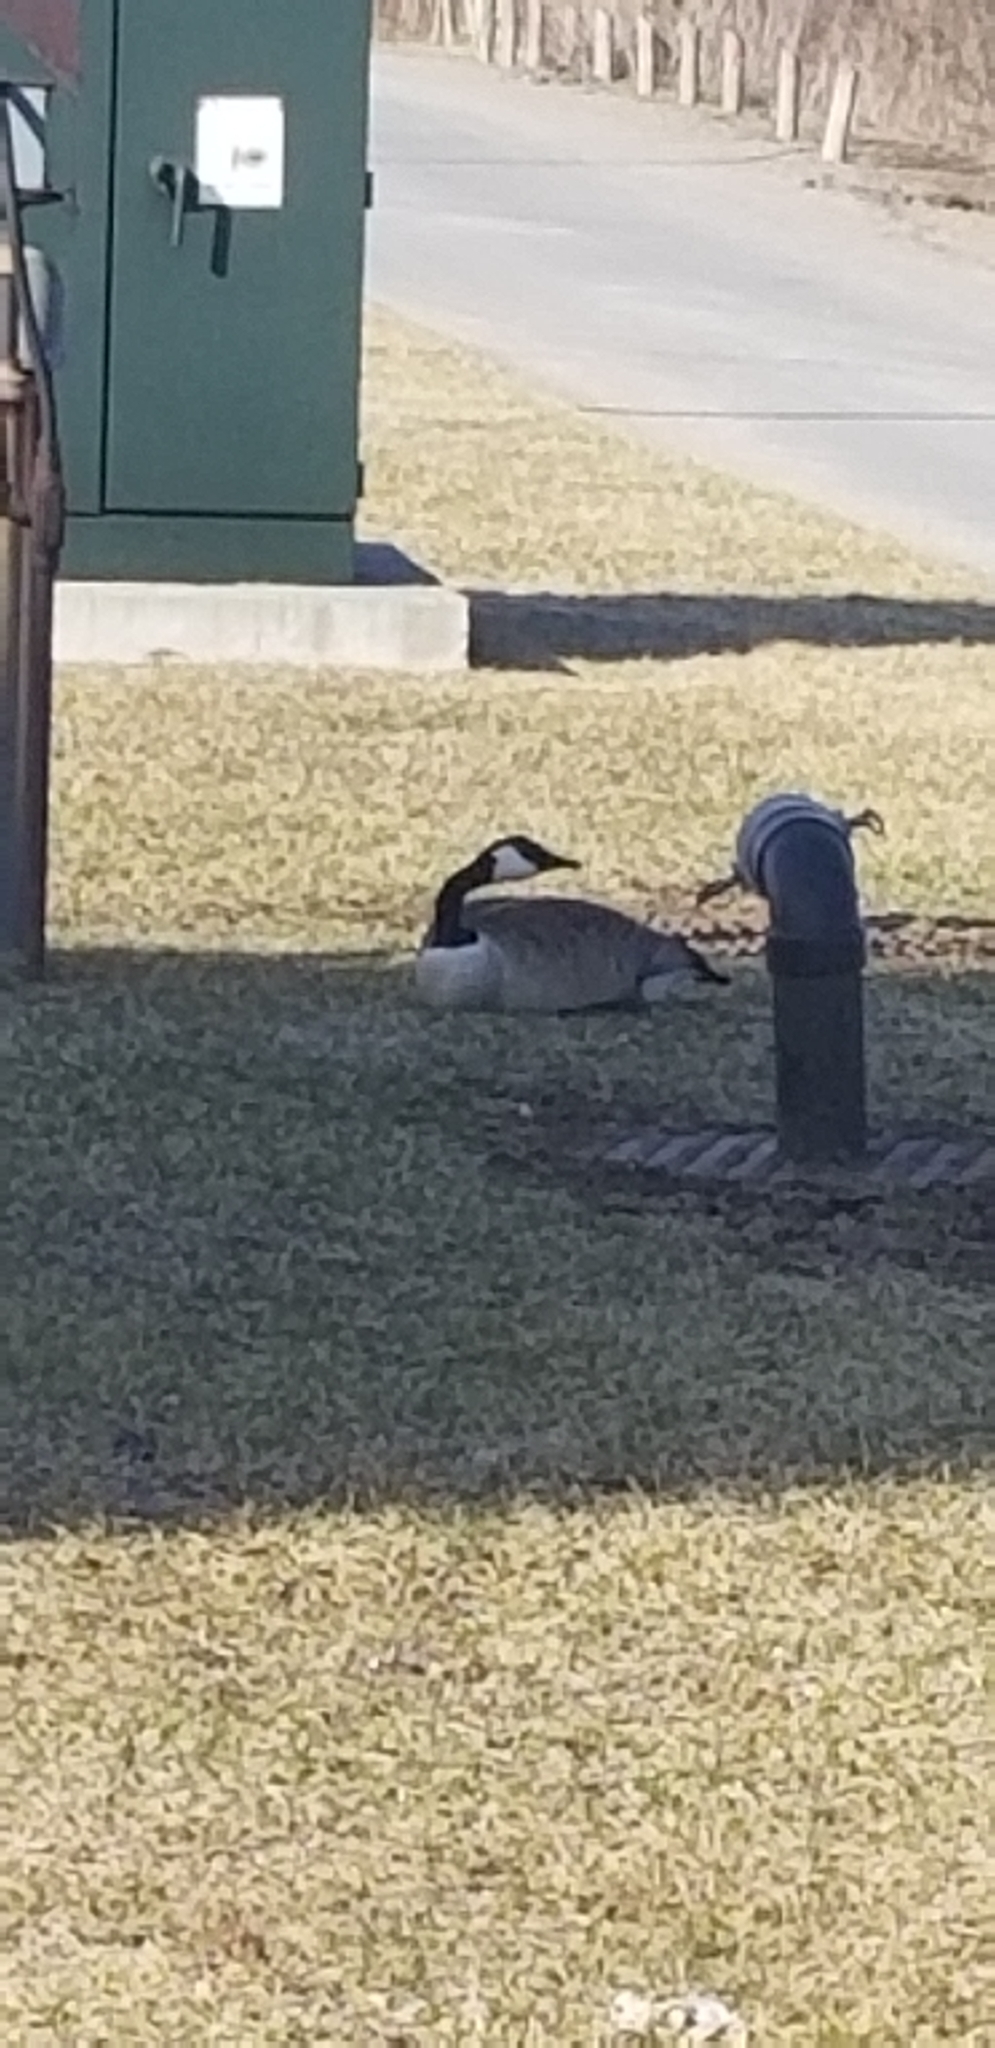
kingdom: Animalia
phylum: Chordata
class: Aves
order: Anseriformes
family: Anatidae
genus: Branta
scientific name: Branta canadensis
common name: Canada goose
